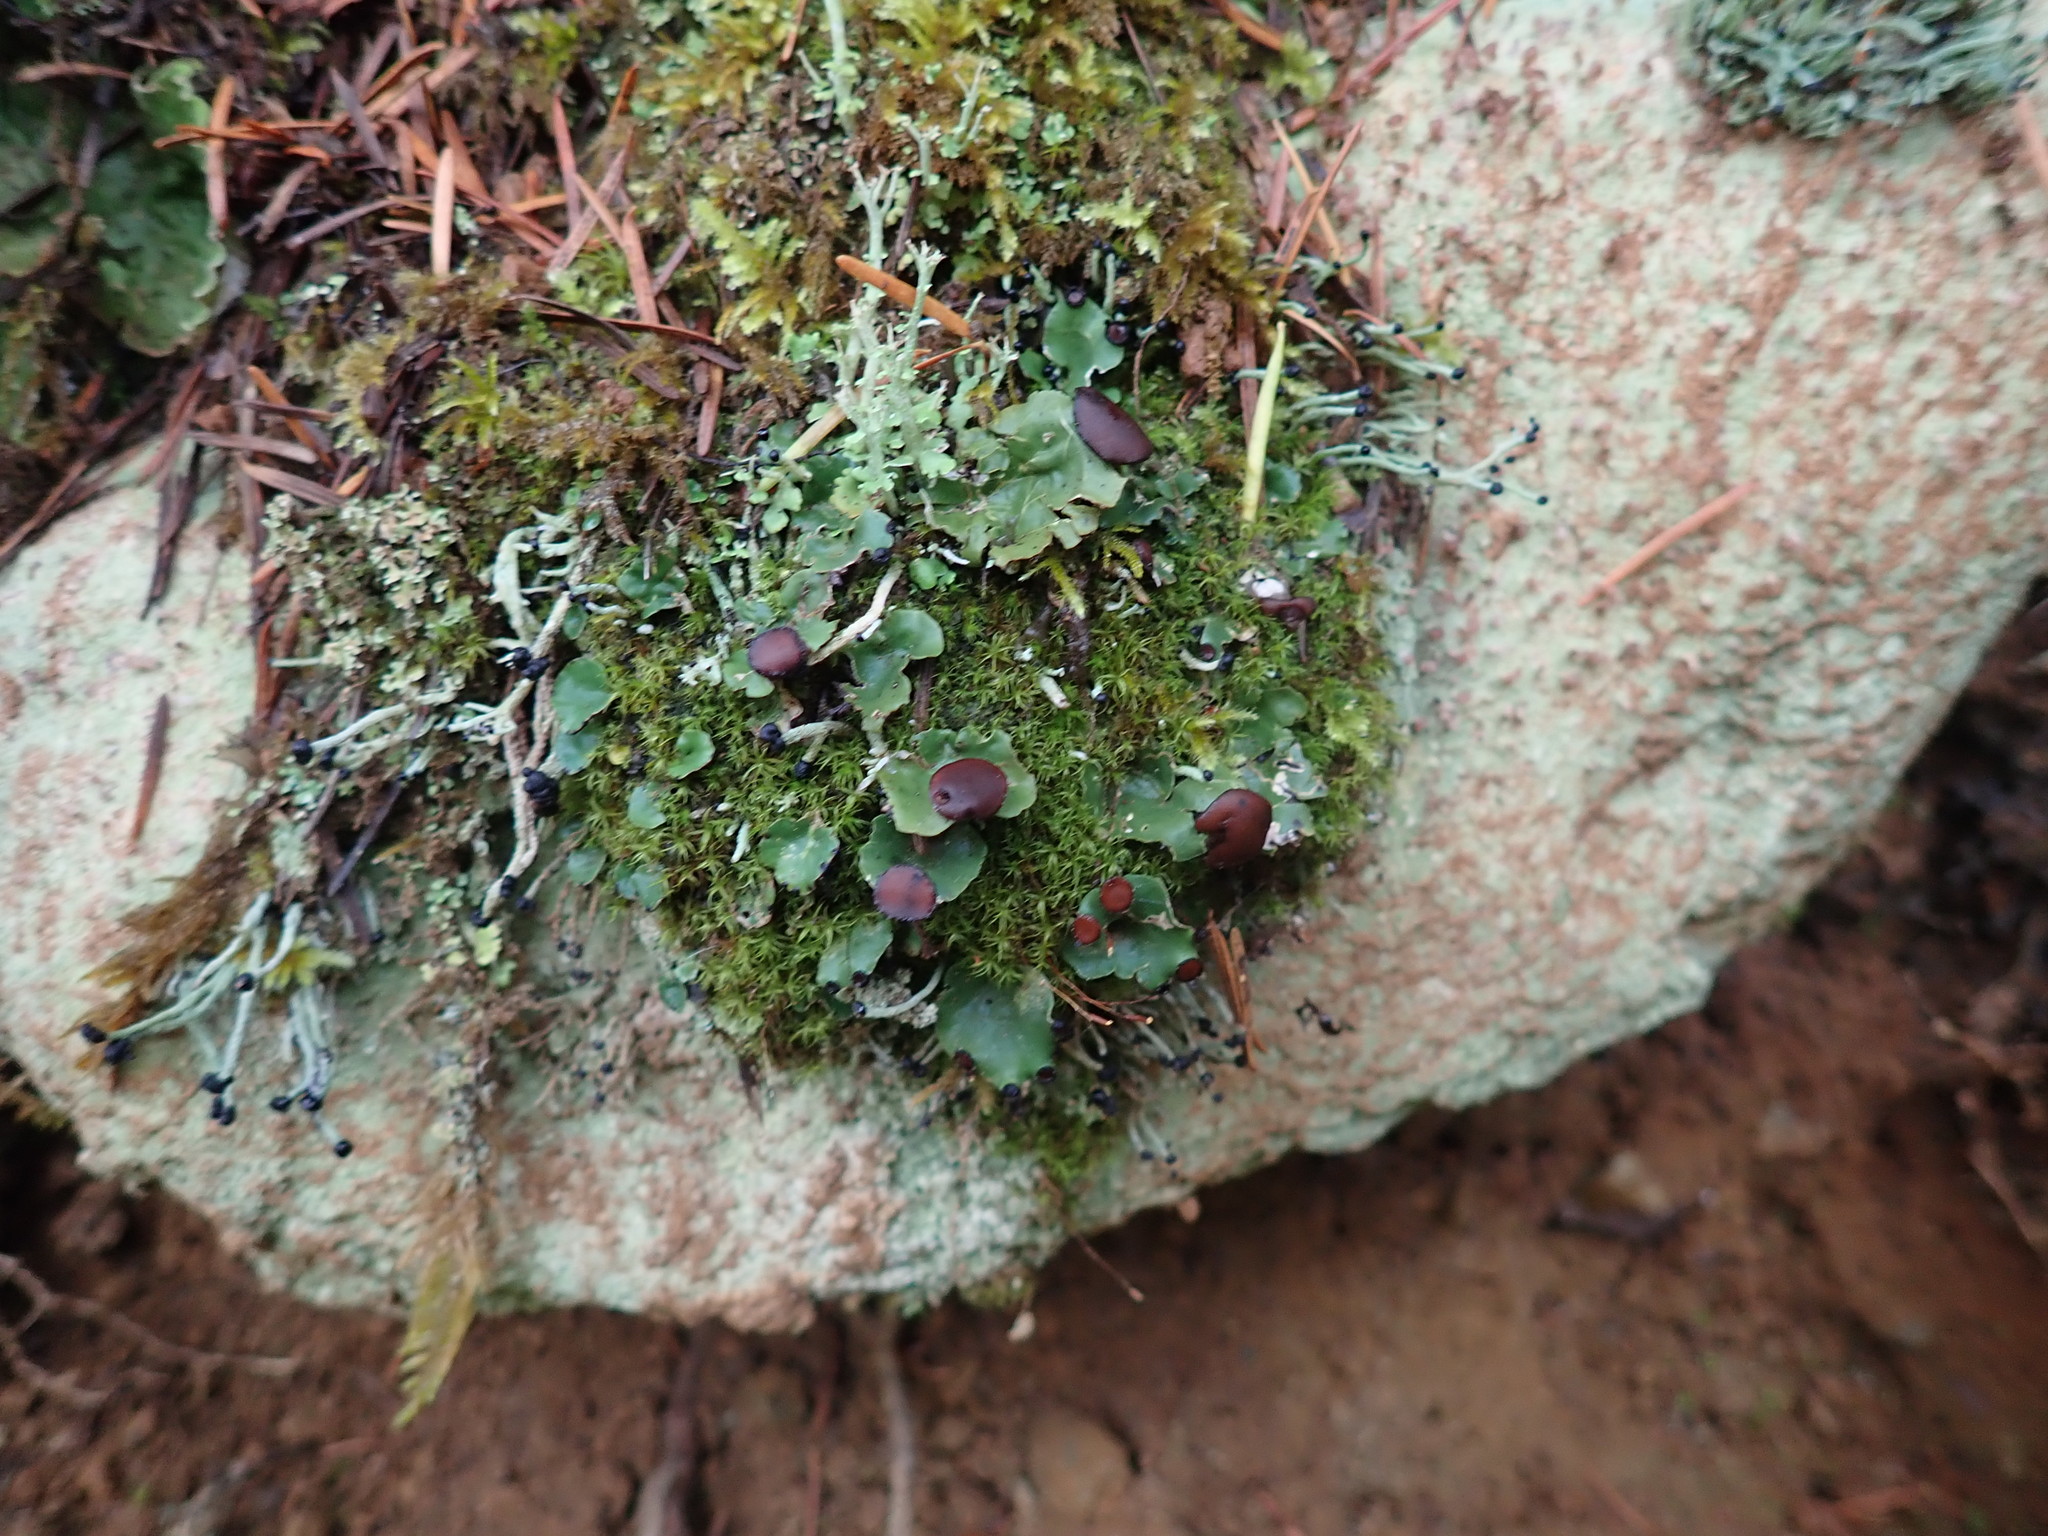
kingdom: Fungi
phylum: Ascomycota
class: Lecanoromycetes
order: Peltigerales
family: Peltigeraceae
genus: Peltigera
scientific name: Peltigera venosa
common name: Pixie gowns lichen
